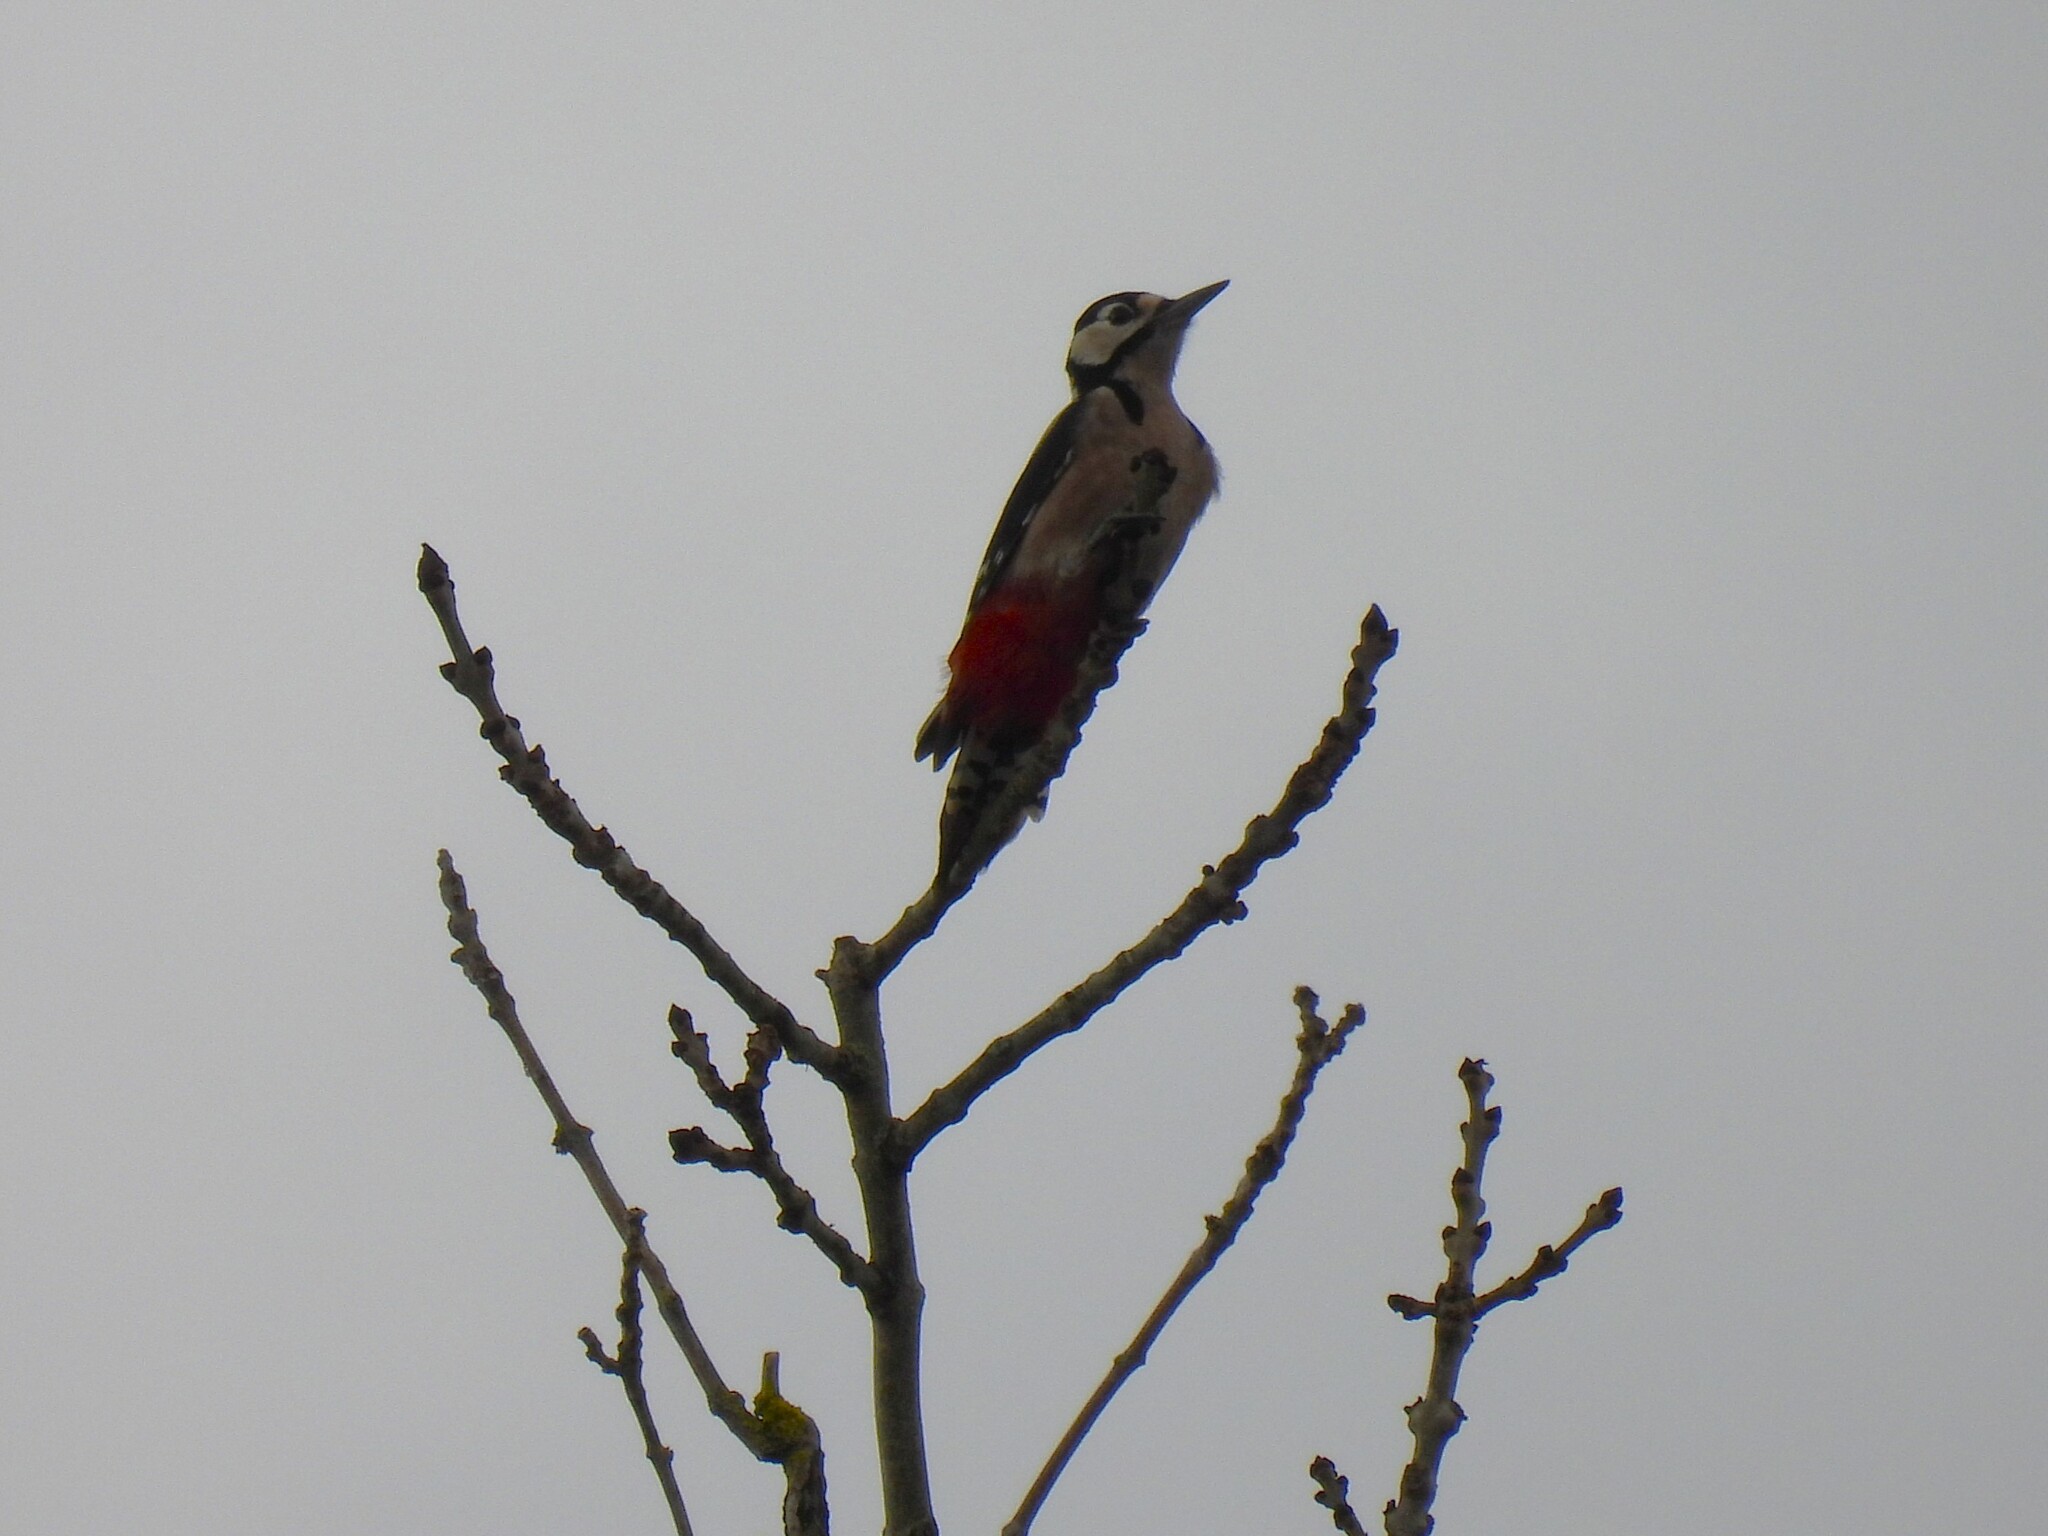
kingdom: Animalia
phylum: Chordata
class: Aves
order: Piciformes
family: Picidae
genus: Dendrocopos
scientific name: Dendrocopos major
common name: Great spotted woodpecker
